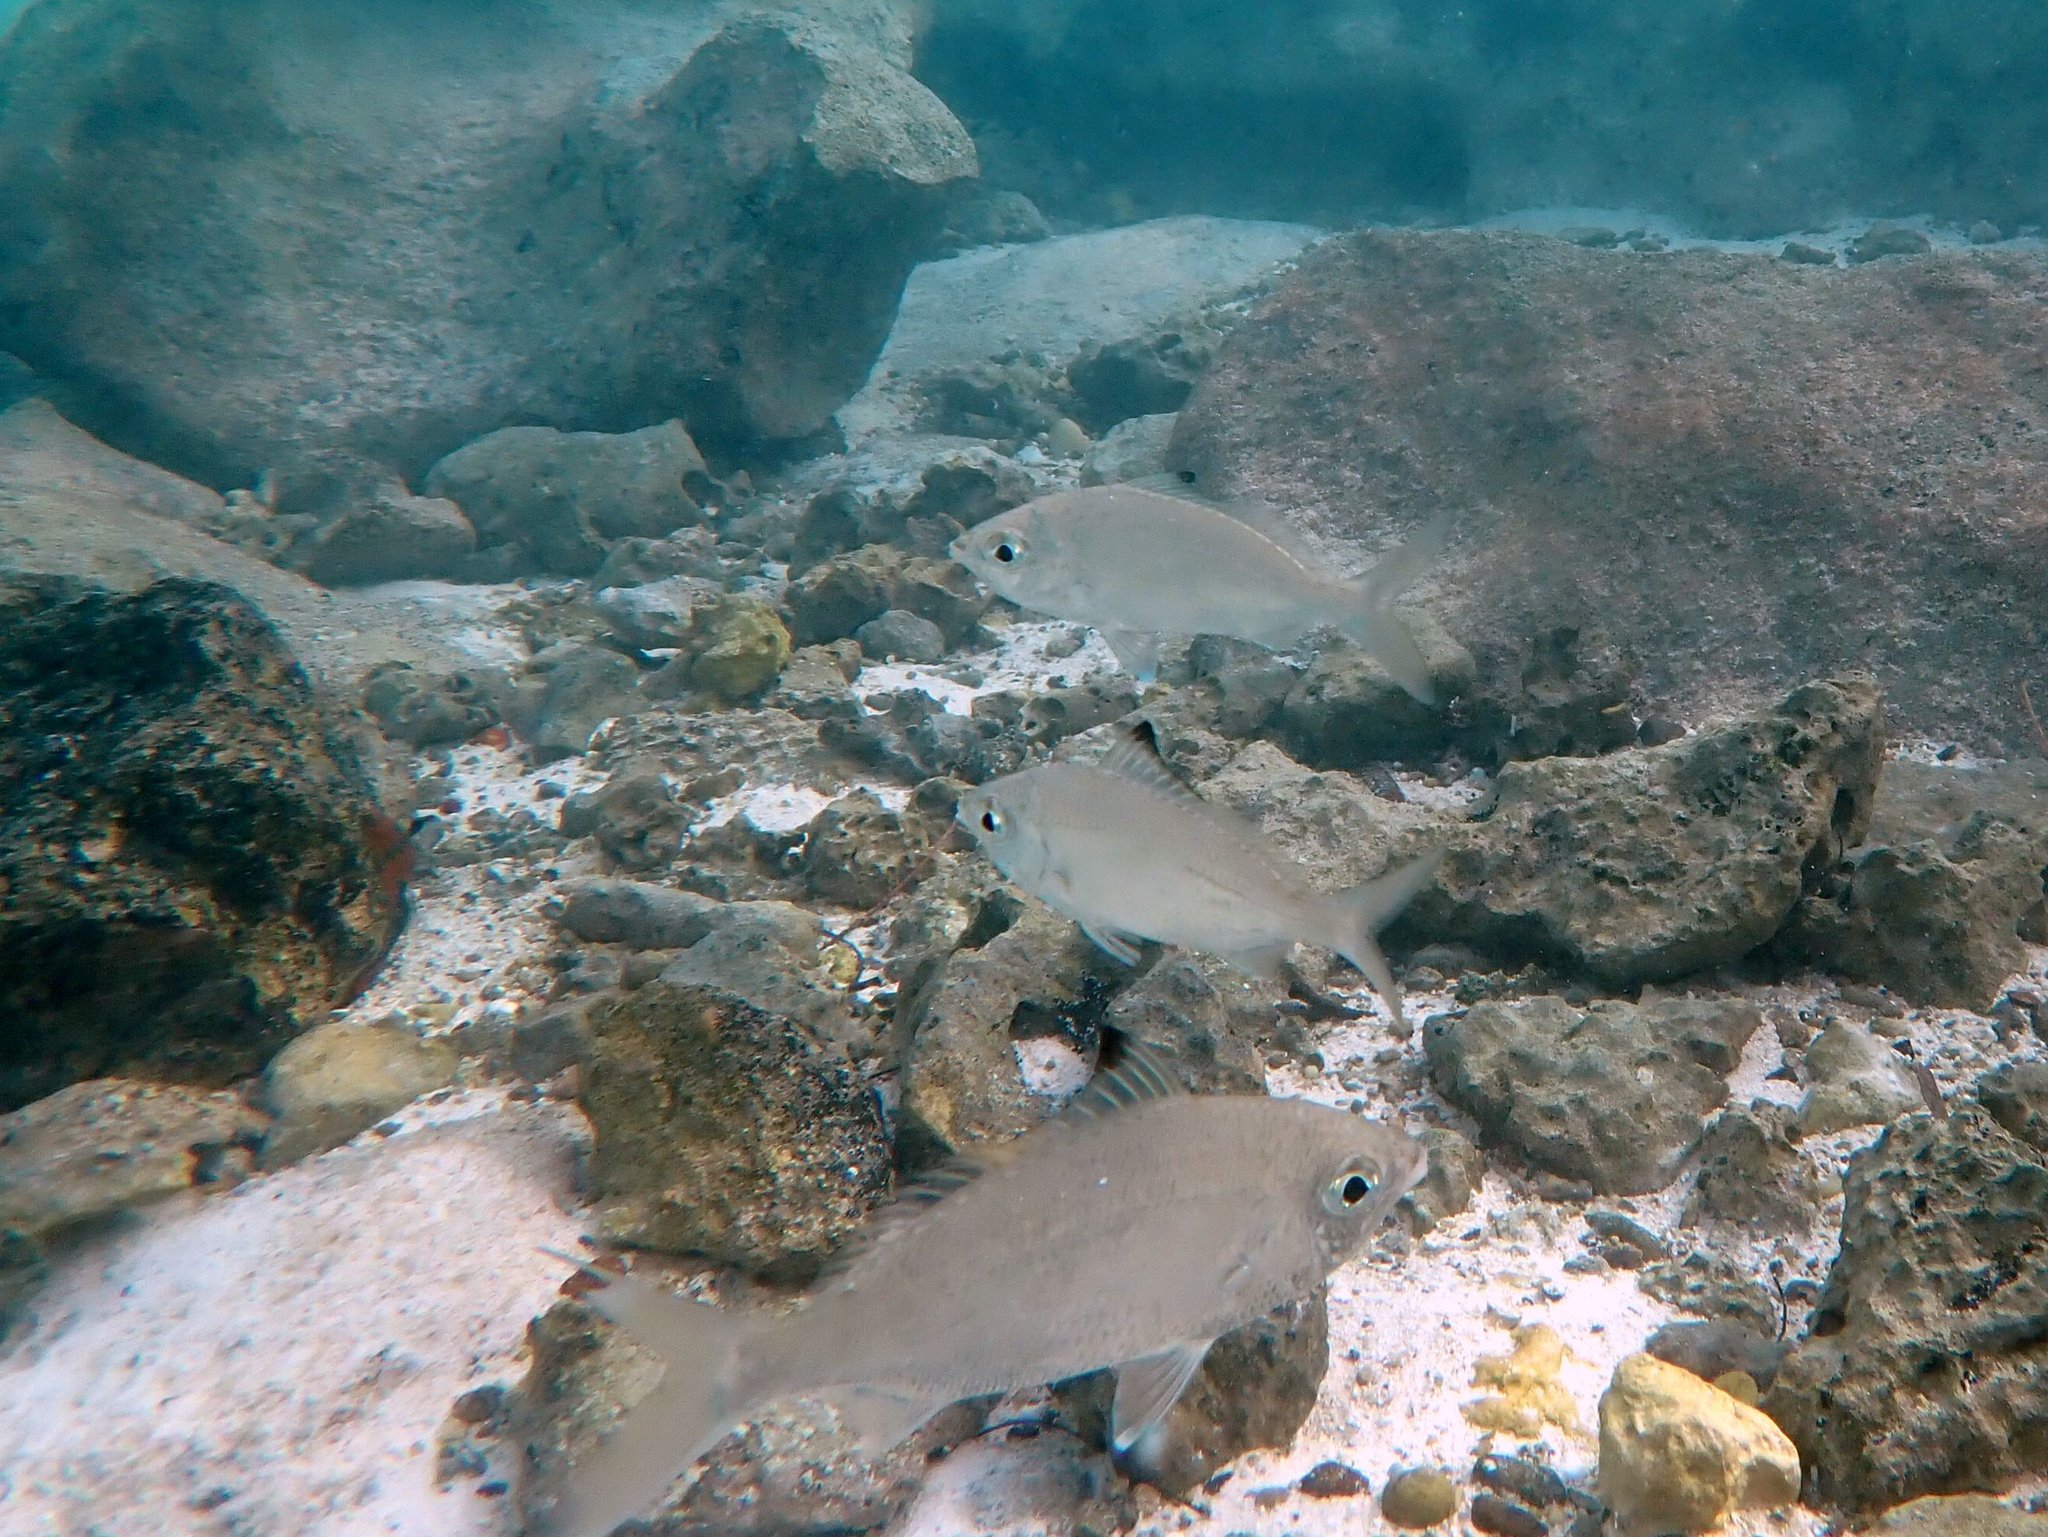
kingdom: Animalia
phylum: Chordata
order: Perciformes
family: Gerreidae
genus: Gerres
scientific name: Gerres oyena
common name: Common silver-biddy
